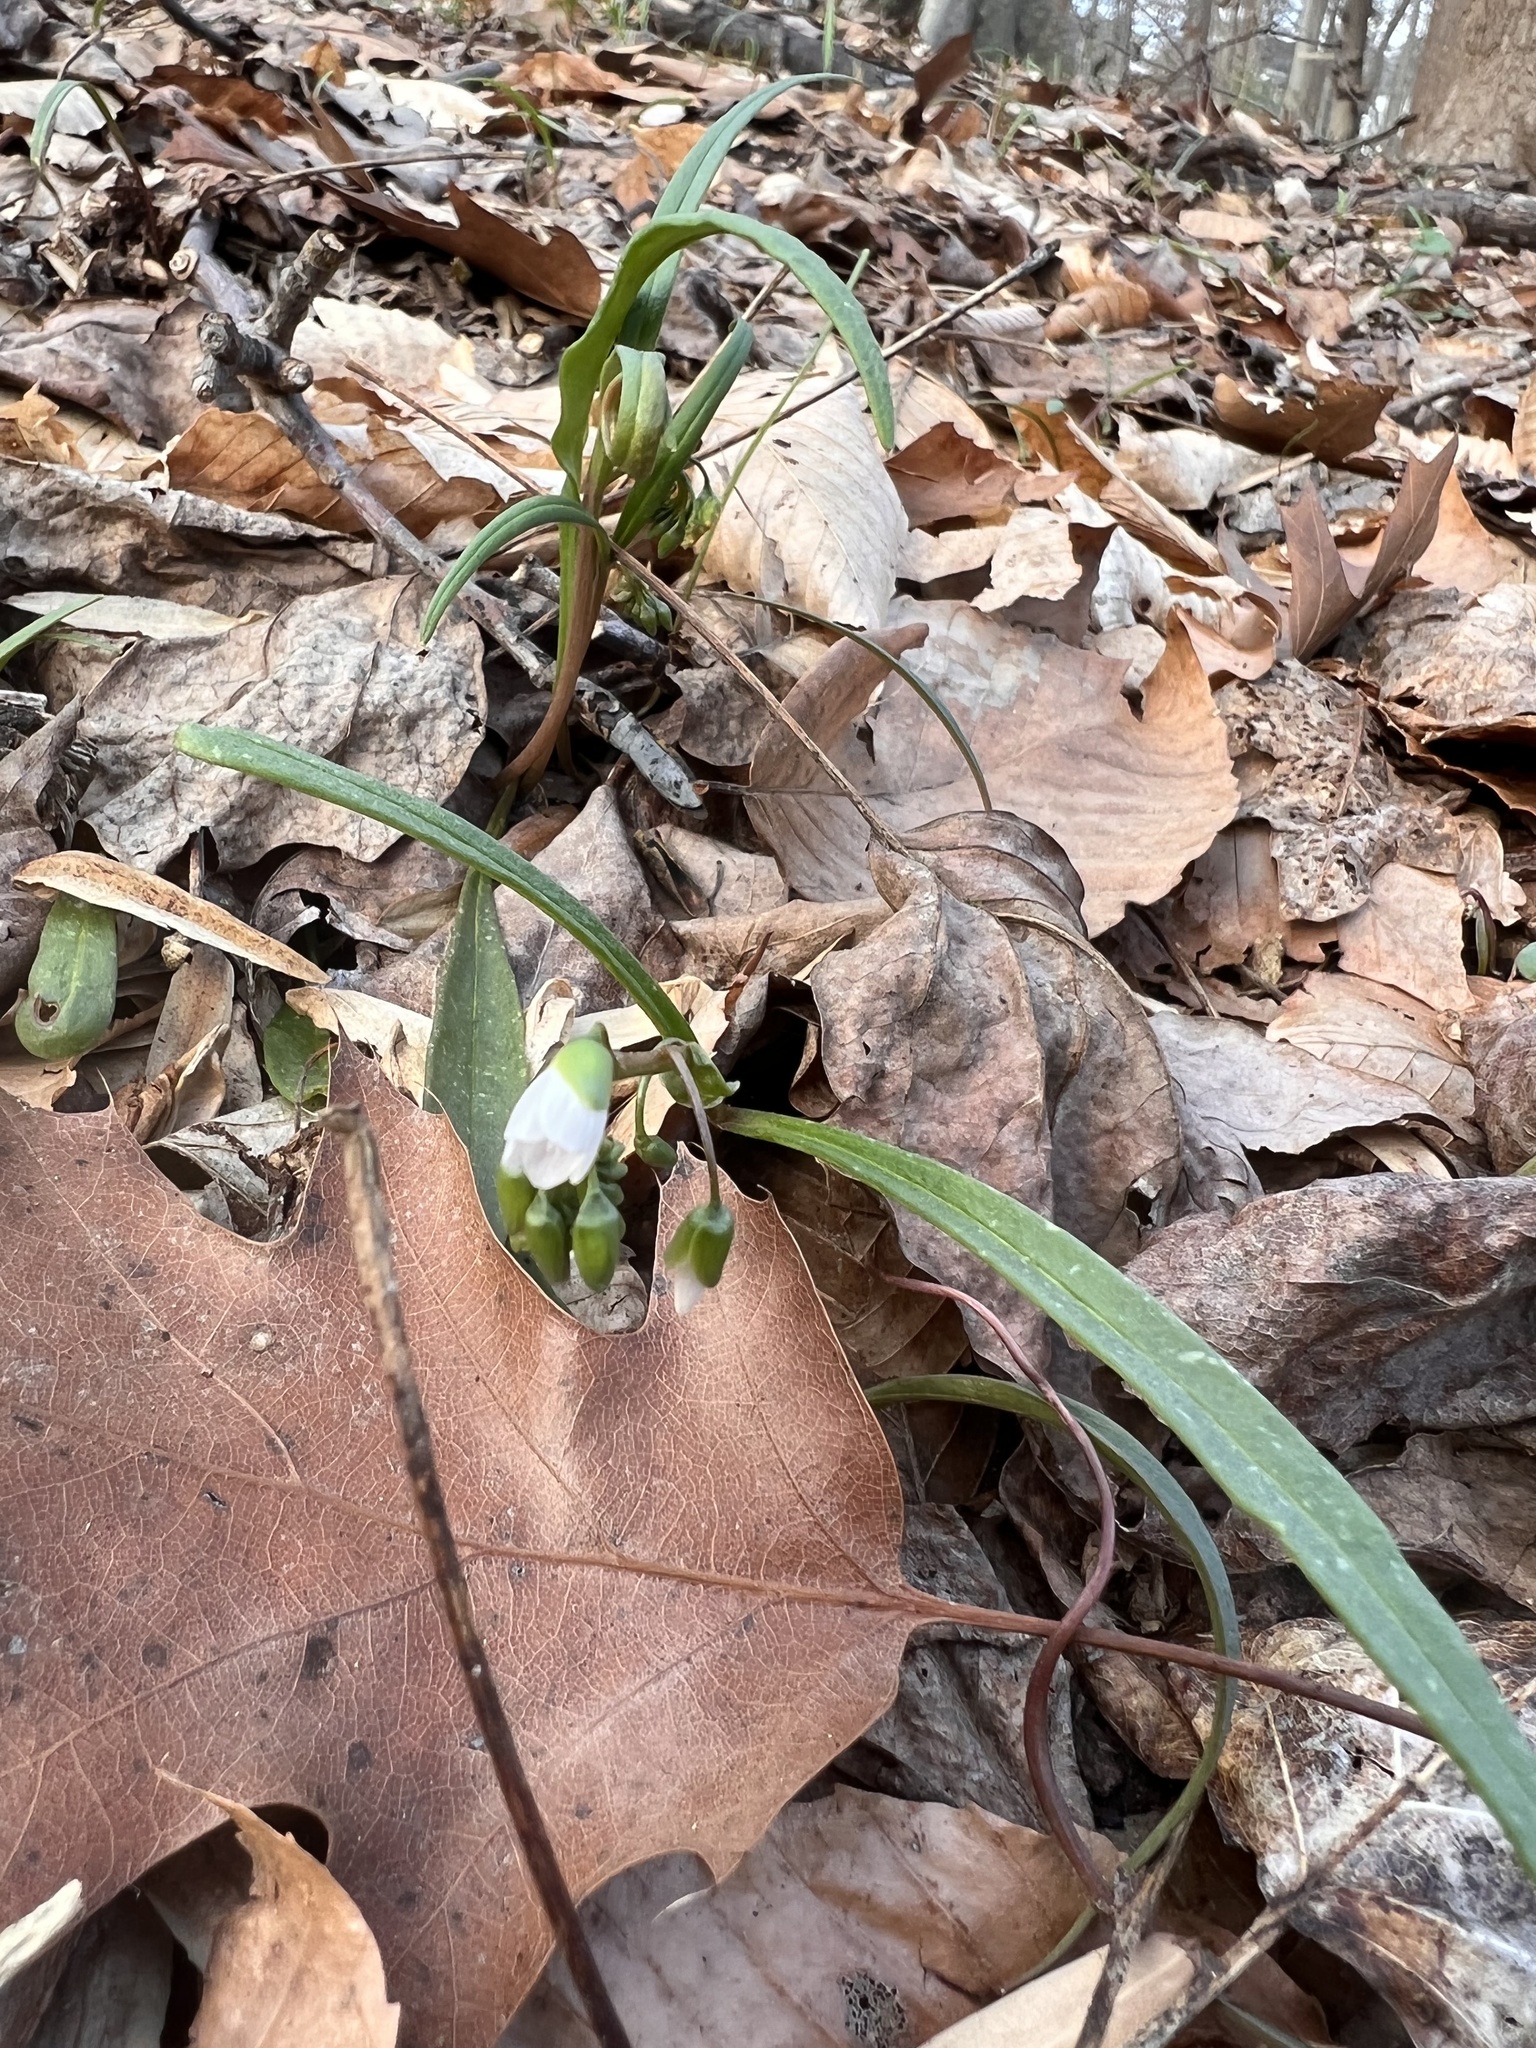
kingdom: Plantae
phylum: Tracheophyta
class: Magnoliopsida
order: Caryophyllales
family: Montiaceae
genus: Claytonia
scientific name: Claytonia virginica
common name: Virginia springbeauty
